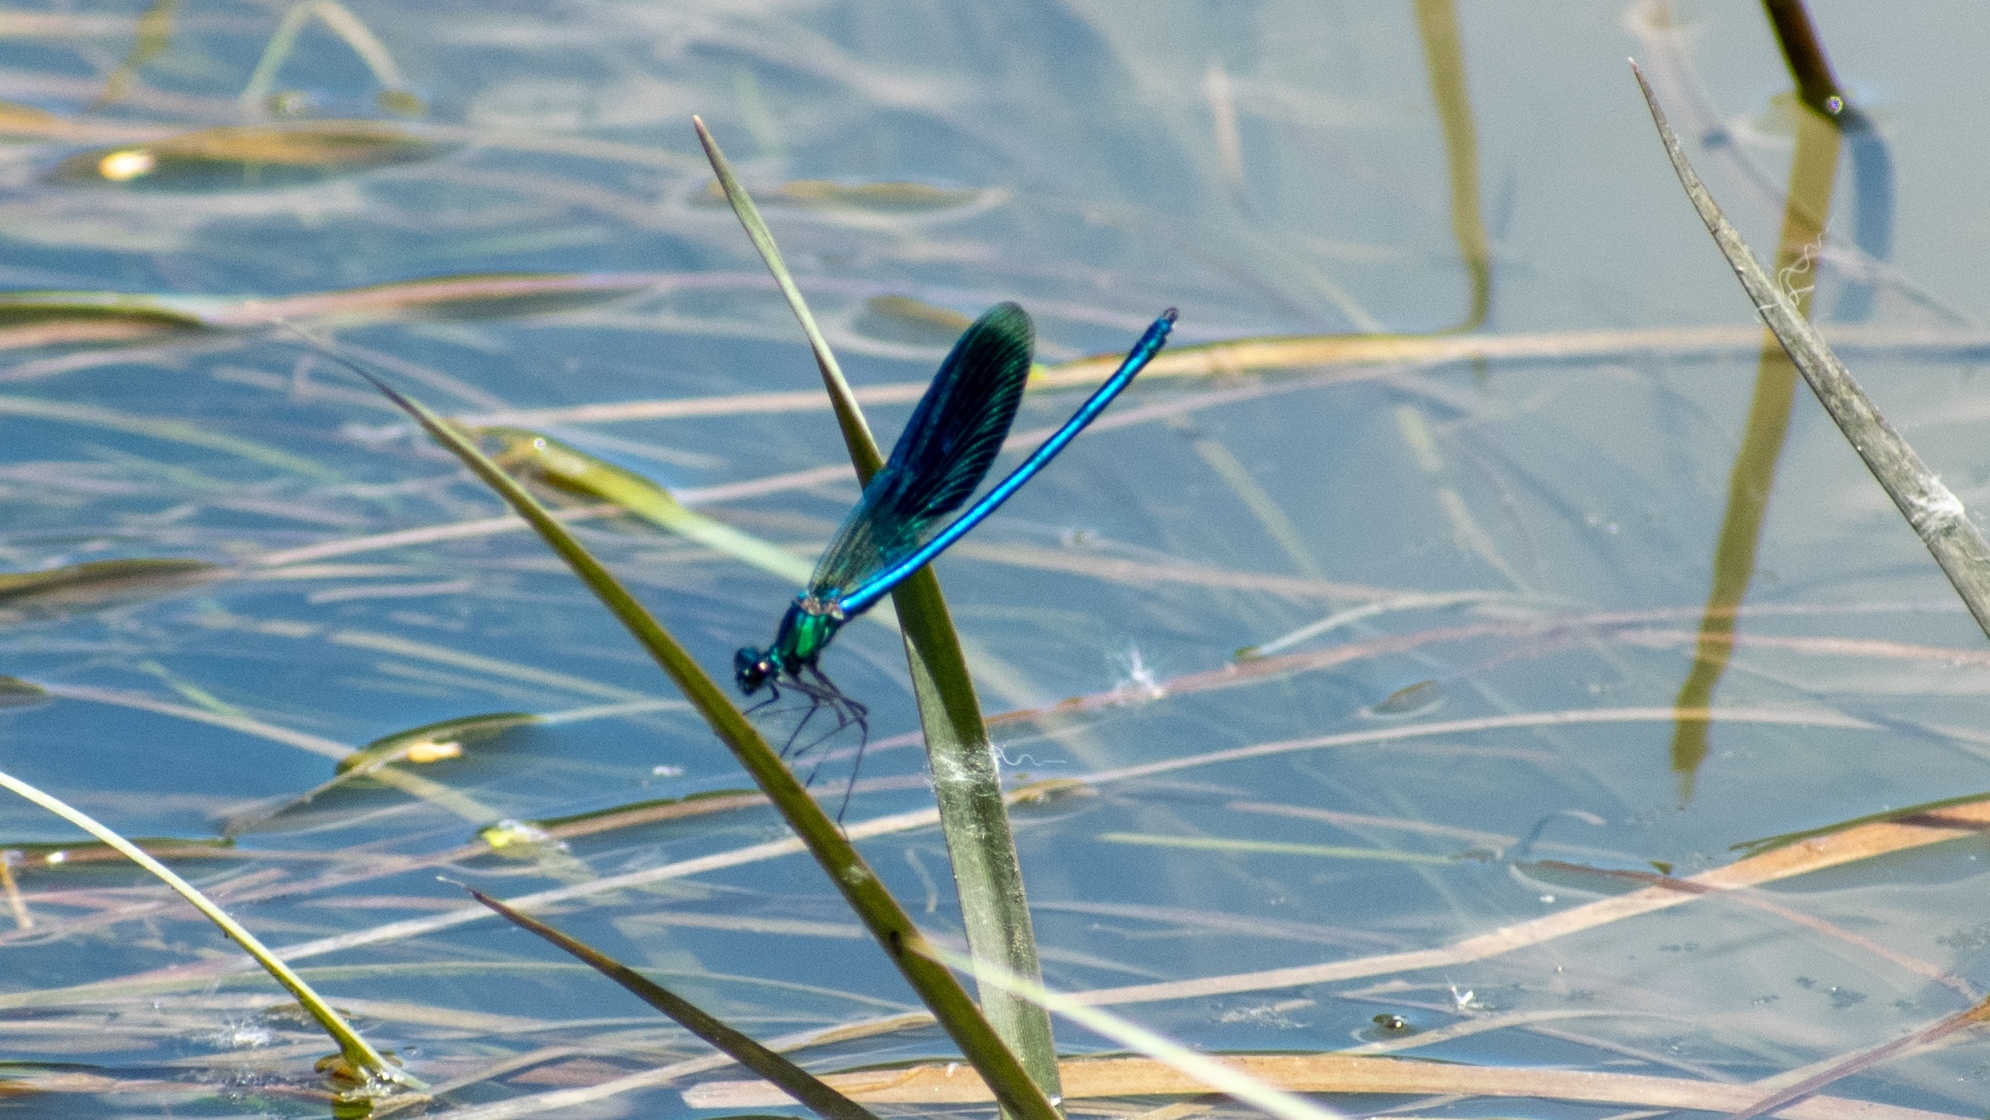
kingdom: Animalia
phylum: Arthropoda
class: Insecta
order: Odonata
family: Calopterygidae
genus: Calopteryx
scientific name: Calopteryx splendens
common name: Banded demoiselle
